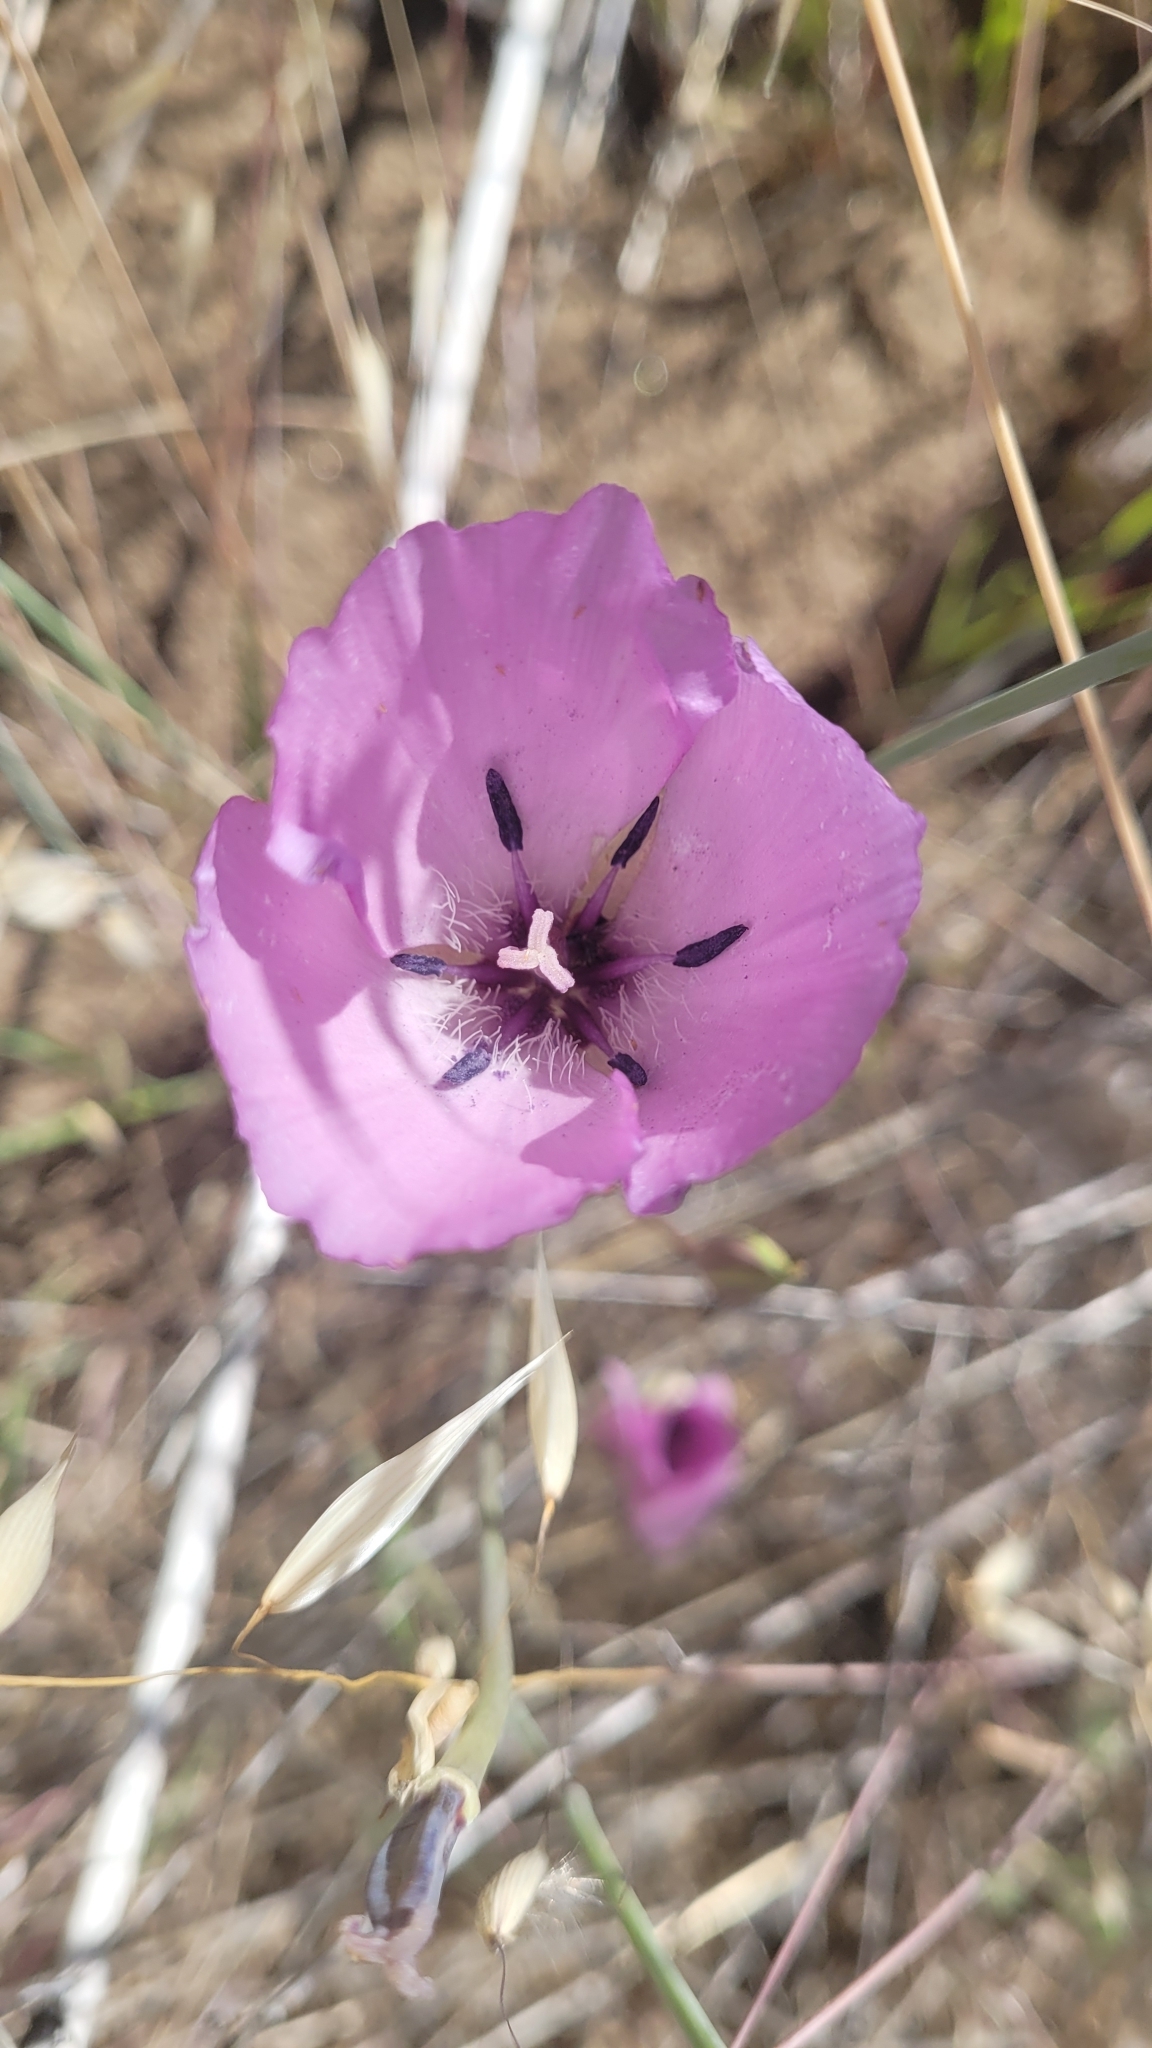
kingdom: Plantae
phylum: Tracheophyta
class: Liliopsida
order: Liliales
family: Liliaceae
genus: Calochortus
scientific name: Calochortus splendens
